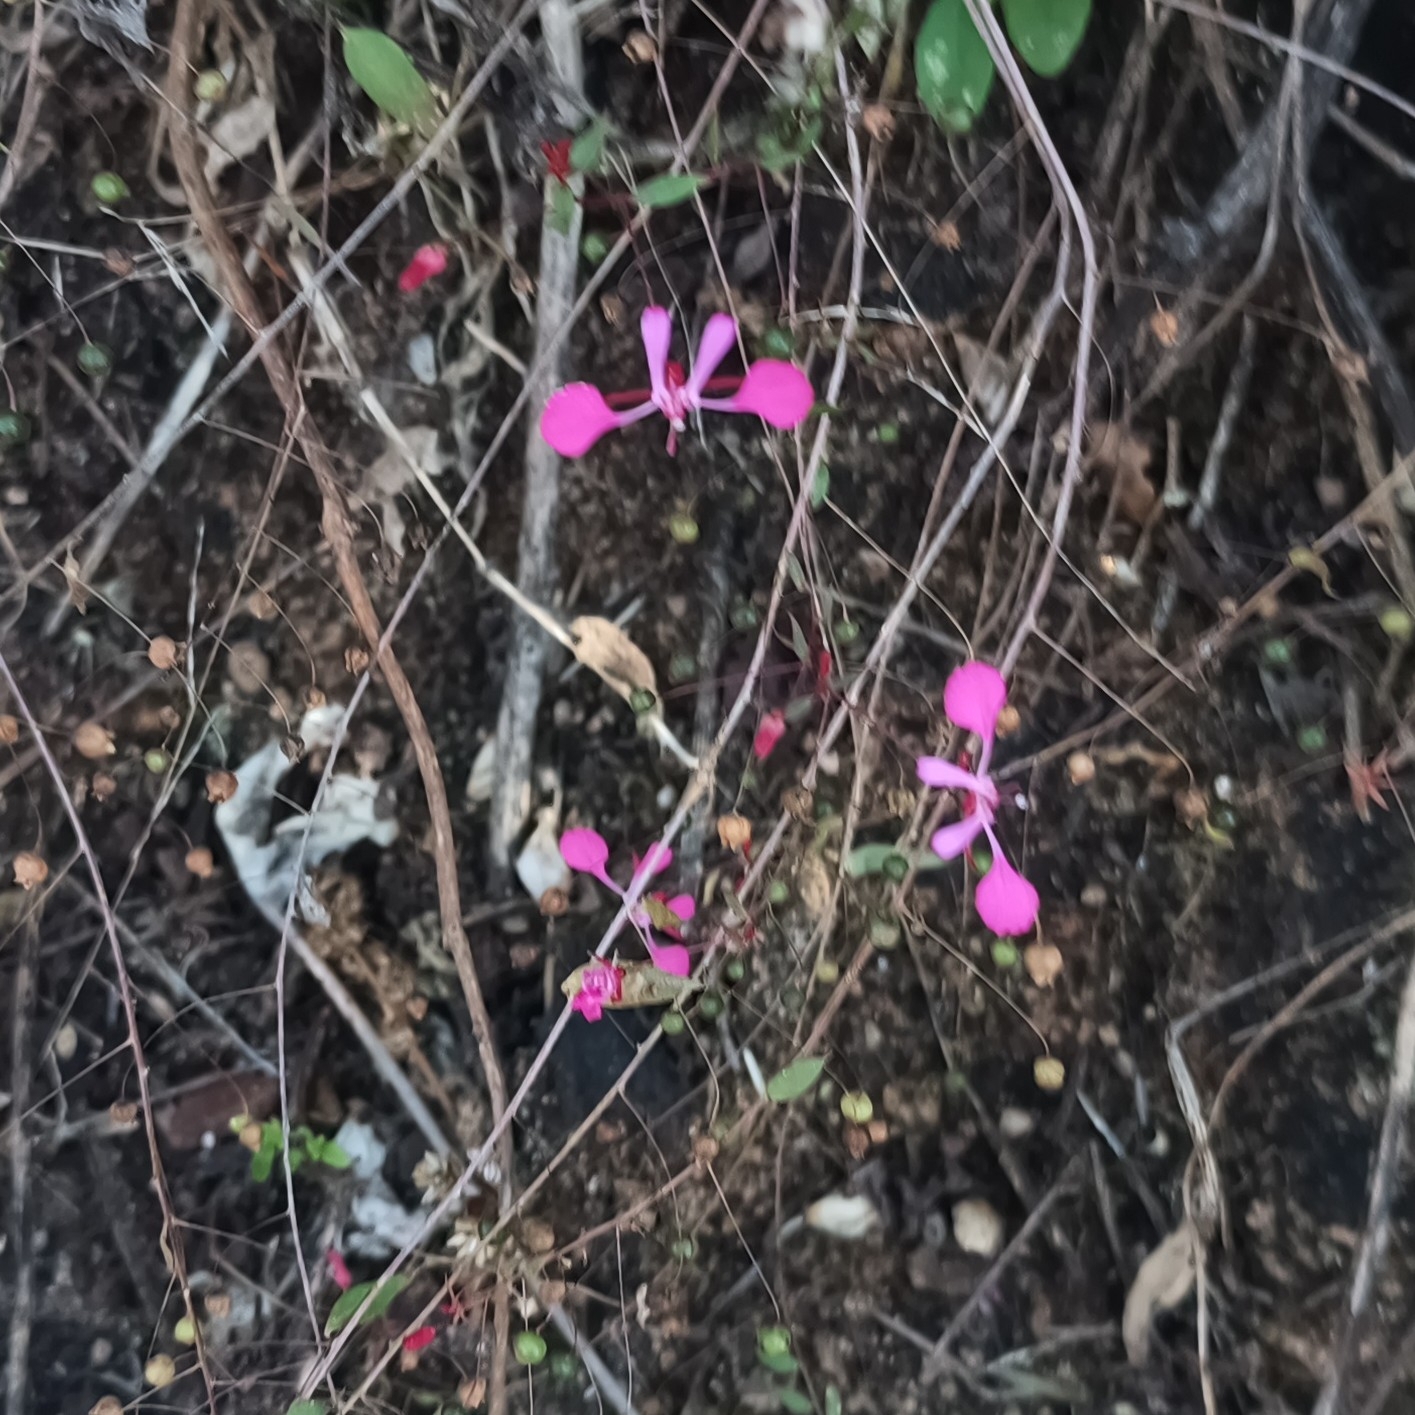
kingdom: Plantae
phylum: Tracheophyta
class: Magnoliopsida
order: Myrtales
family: Onagraceae
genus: Lopezia
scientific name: Lopezia racemosa
